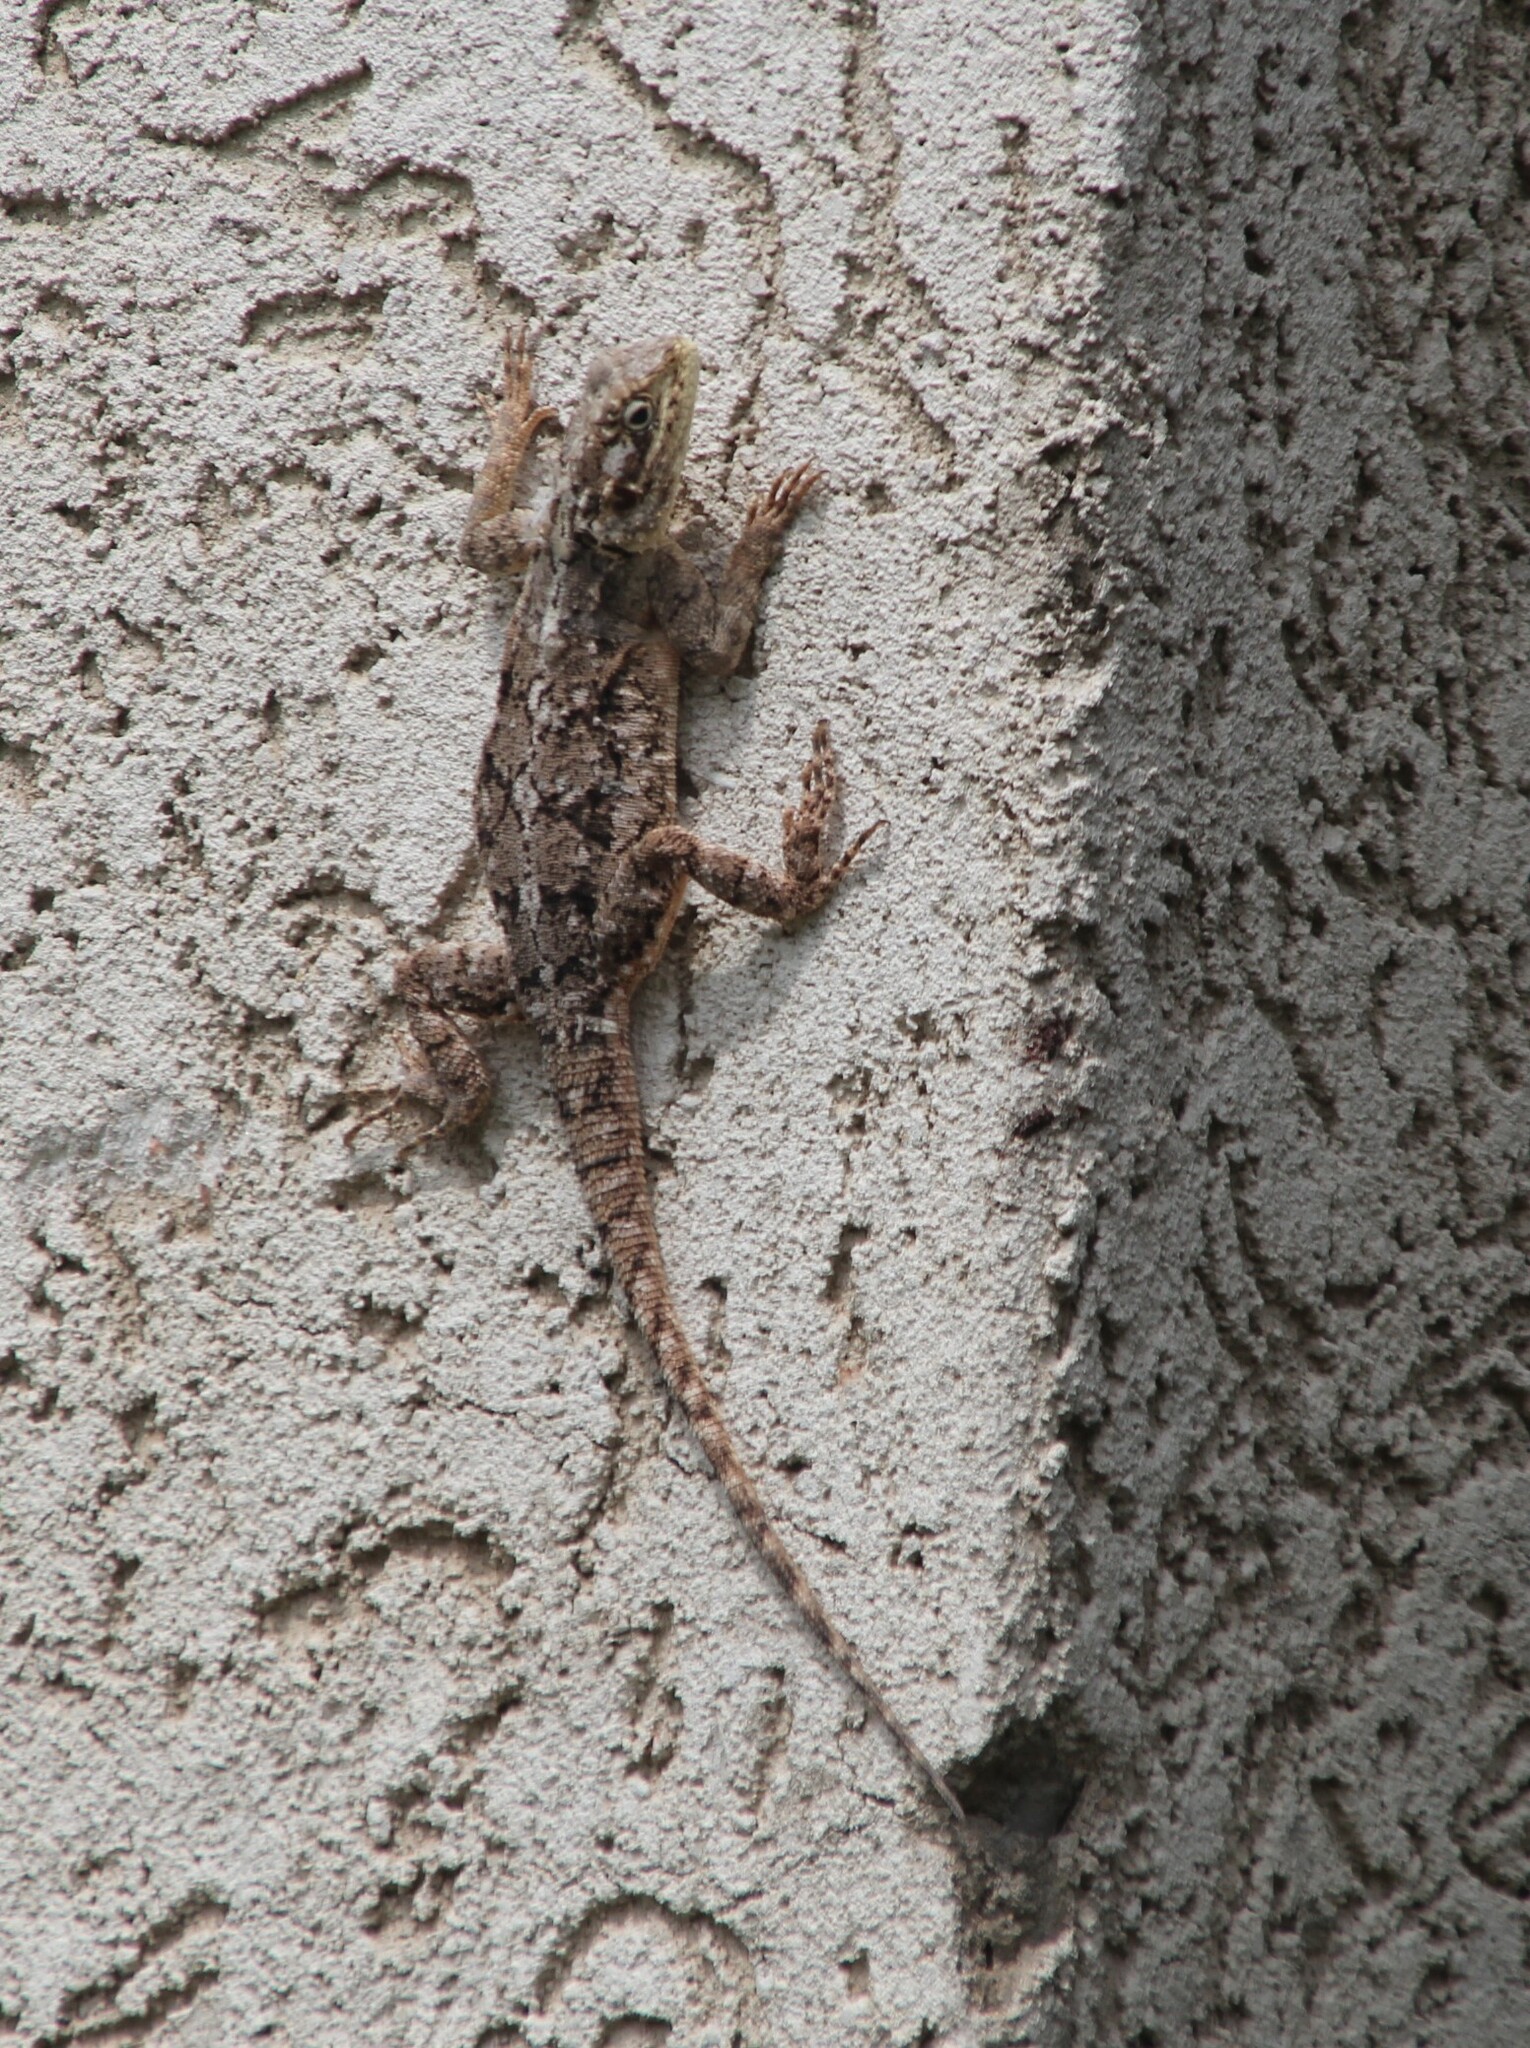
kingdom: Animalia
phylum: Chordata
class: Squamata
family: Agamidae
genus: Agama
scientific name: Agama doriae
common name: Benoue agama
